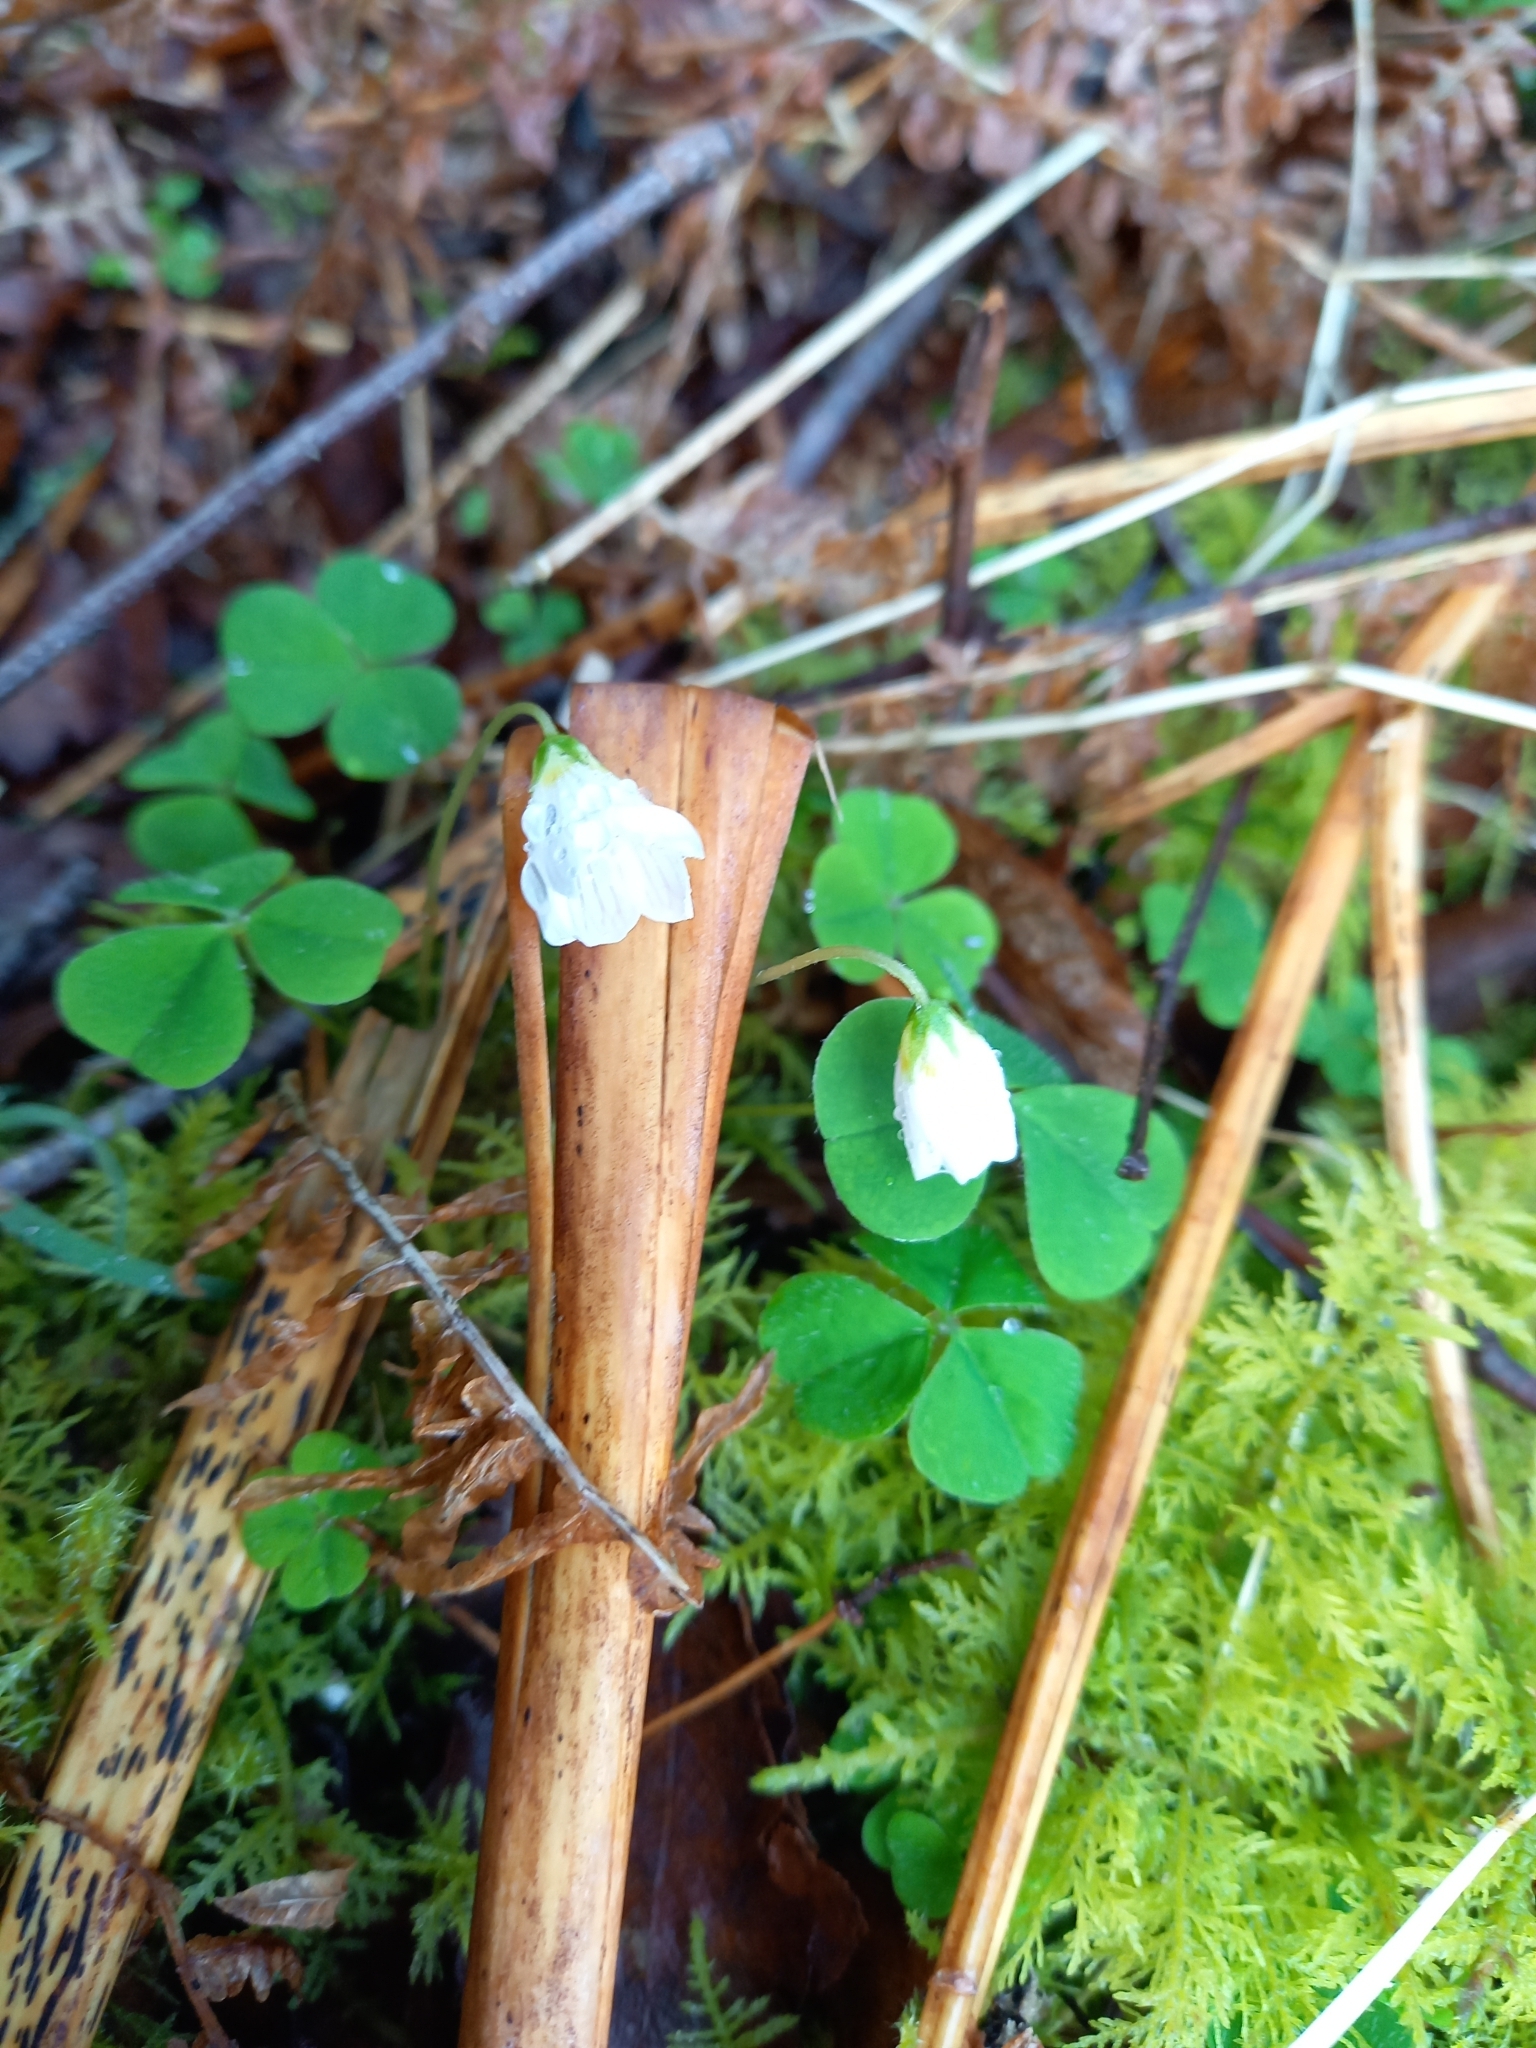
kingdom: Plantae
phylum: Tracheophyta
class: Magnoliopsida
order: Oxalidales
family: Oxalidaceae
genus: Oxalis
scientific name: Oxalis acetosella
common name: Wood-sorrel
